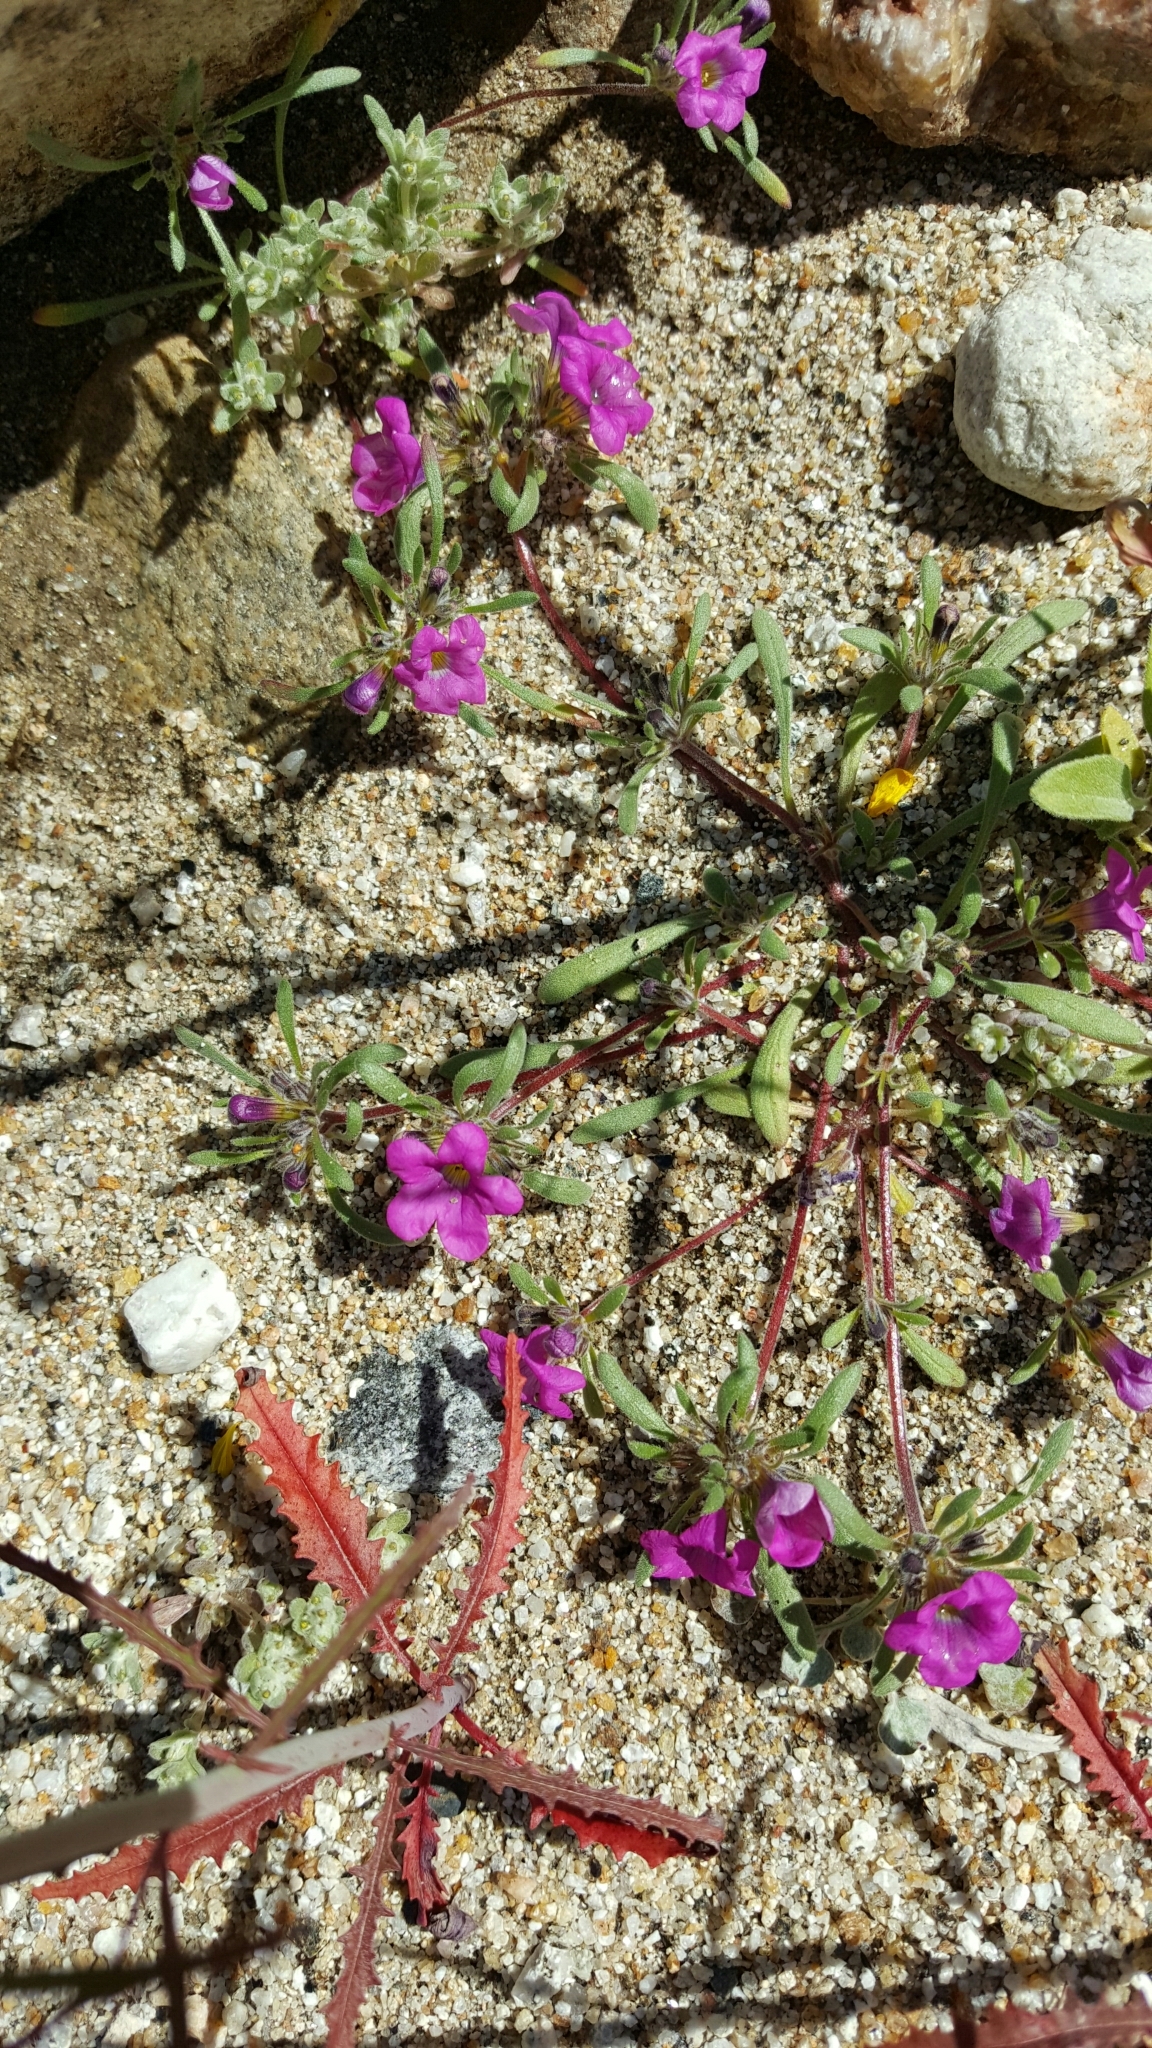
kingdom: Plantae
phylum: Tracheophyta
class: Magnoliopsida
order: Boraginales
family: Namaceae
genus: Nama
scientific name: Nama demissa
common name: Leafy nama
